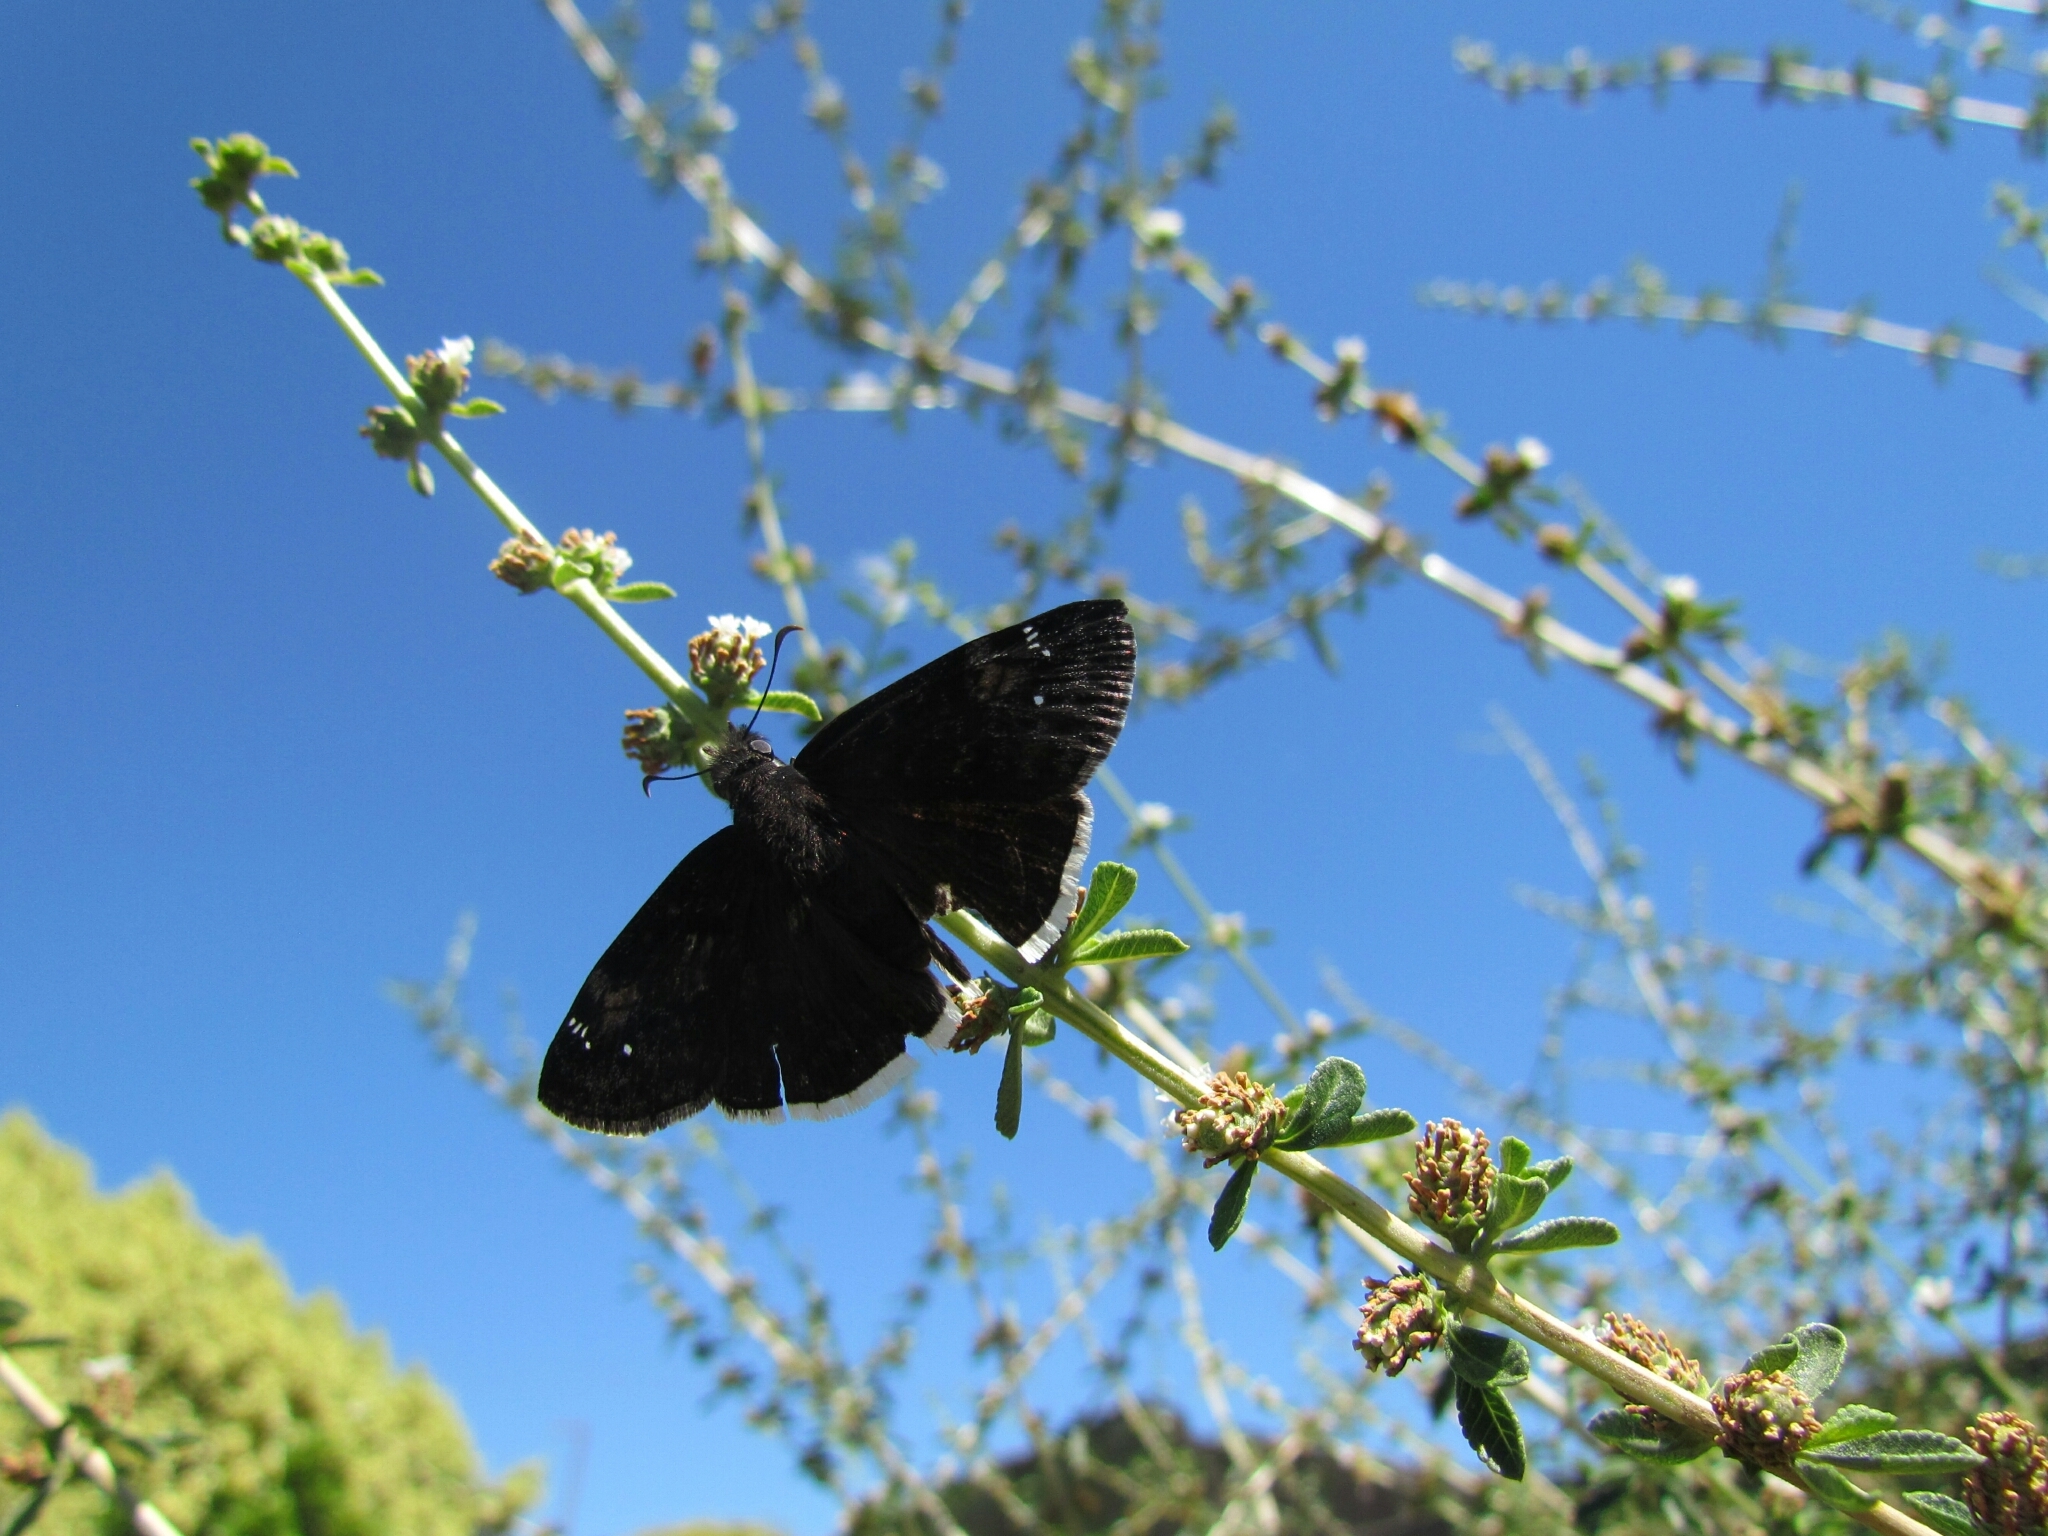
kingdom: Animalia
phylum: Arthropoda
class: Insecta
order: Lepidoptera
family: Hesperiidae
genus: Erynnis
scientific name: Erynnis funeralis
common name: Funereal duskywing
